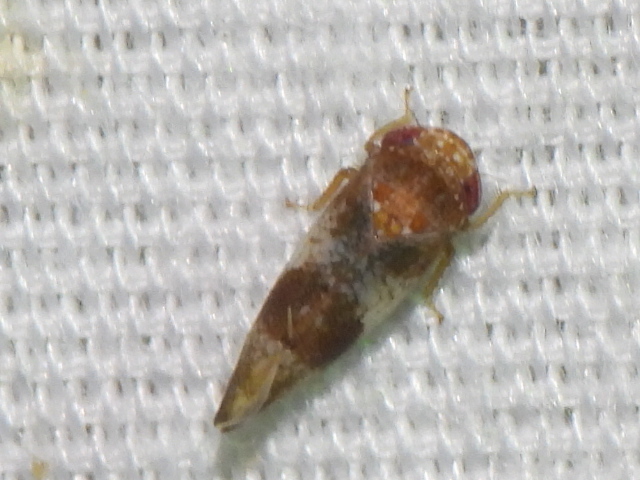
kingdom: Animalia
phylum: Arthropoda
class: Insecta
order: Hemiptera
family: Cicadellidae
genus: Norvellina
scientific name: Norvellina helenae
